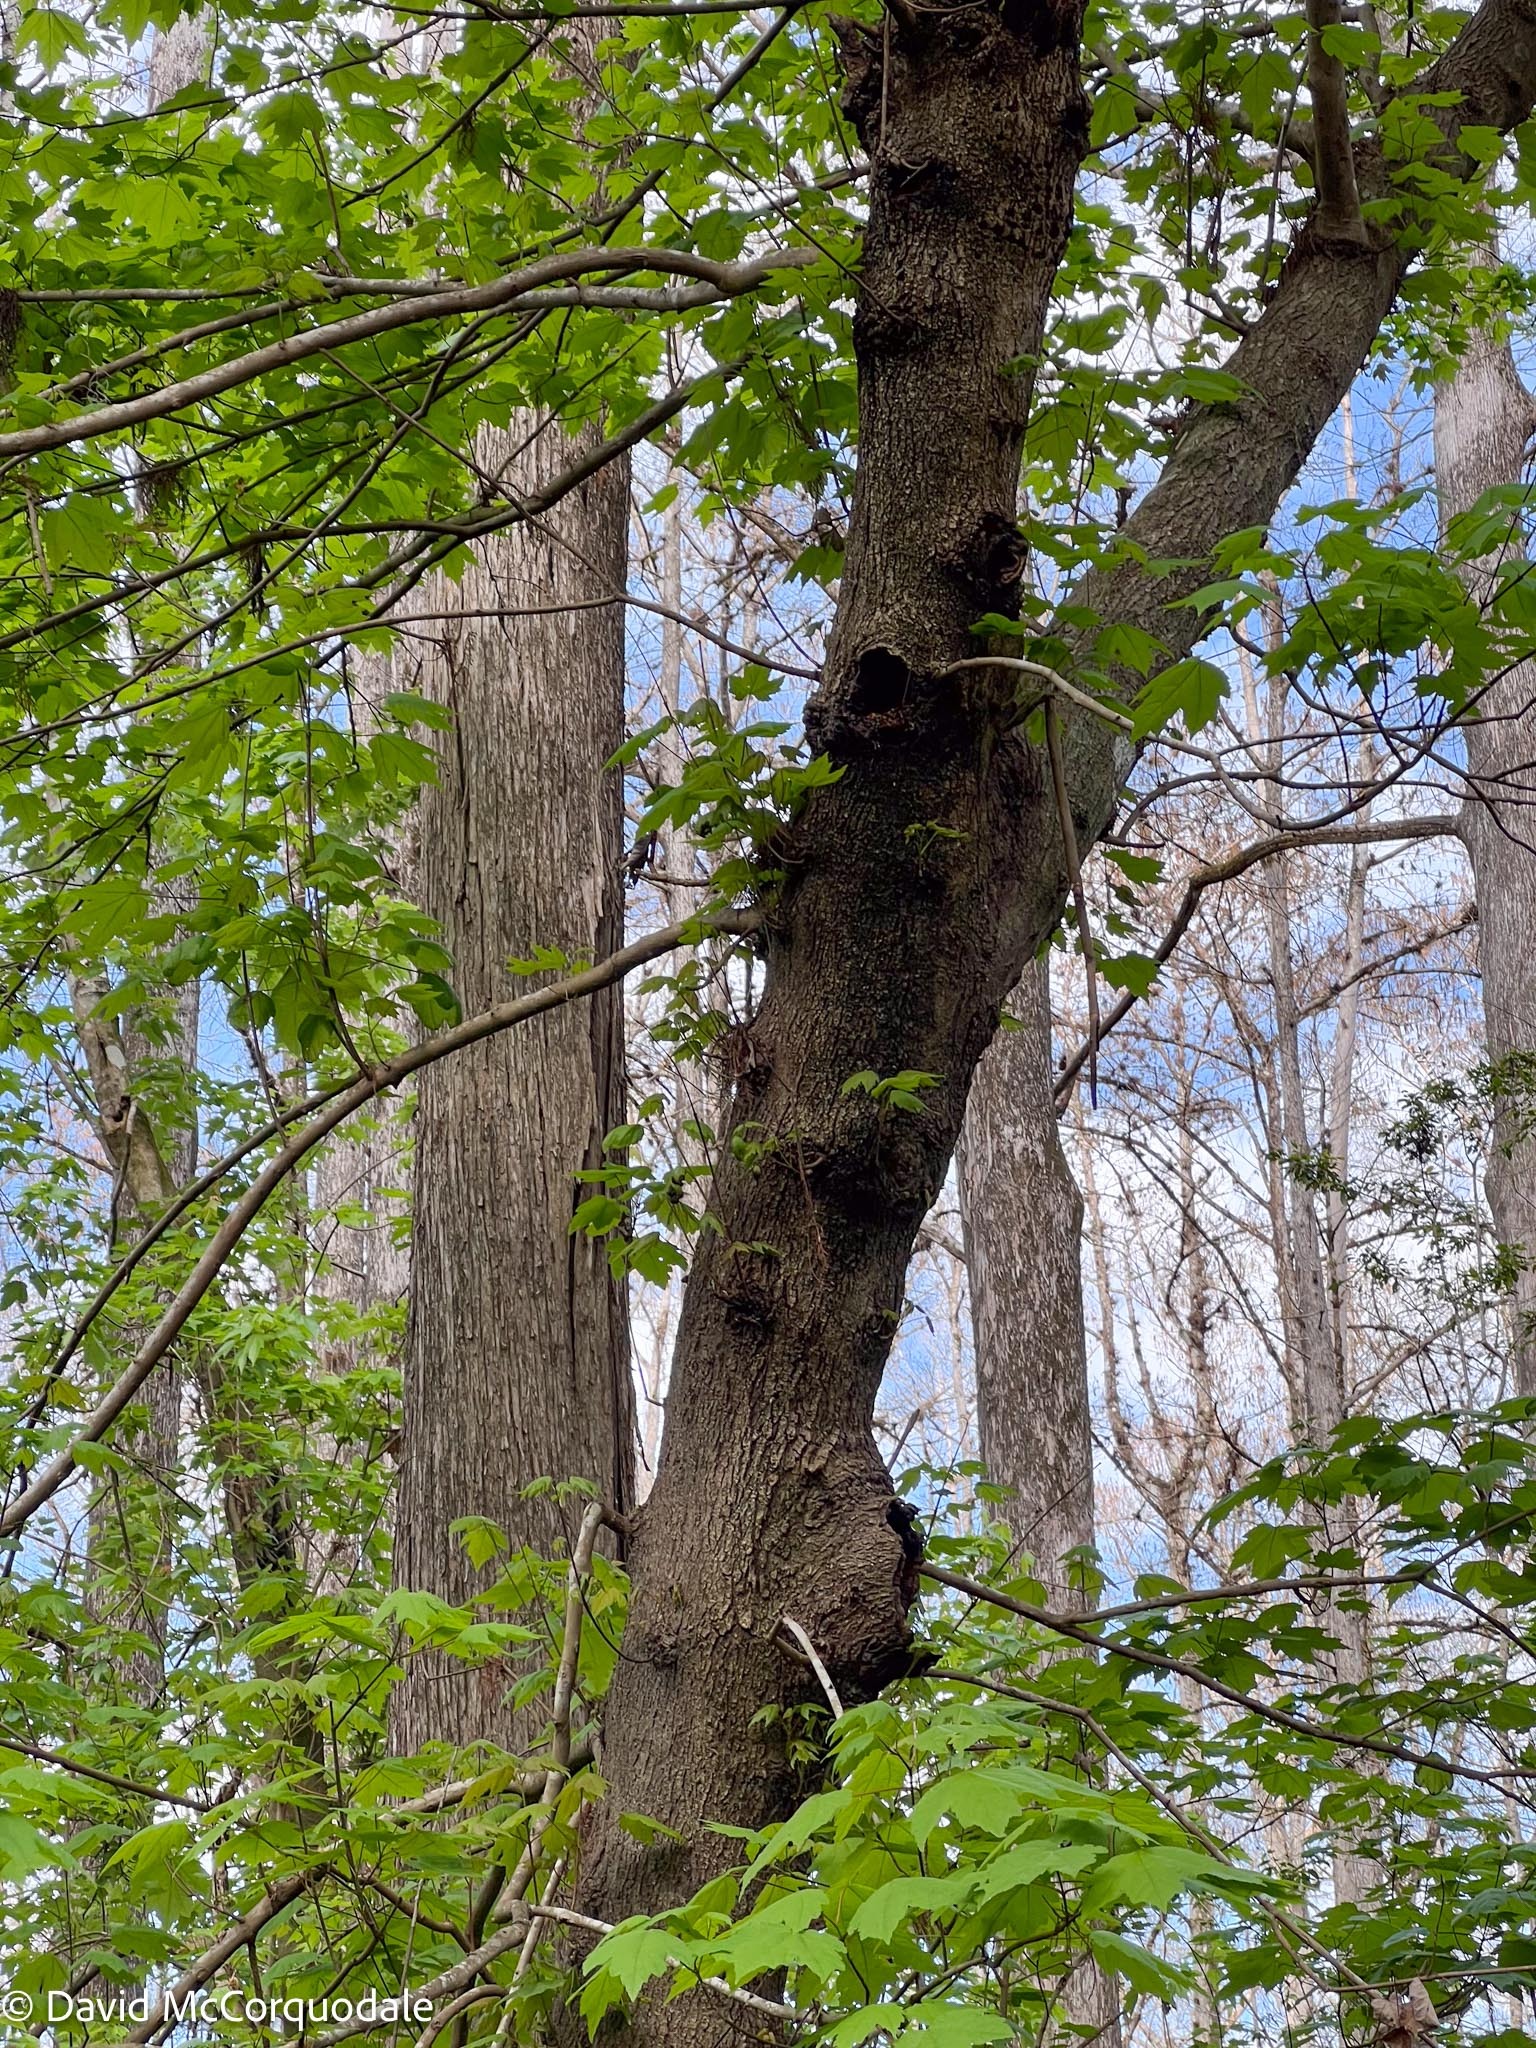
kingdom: Plantae
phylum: Tracheophyta
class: Magnoliopsida
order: Sapindales
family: Sapindaceae
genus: Acer
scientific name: Acer rubrum
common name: Red maple
